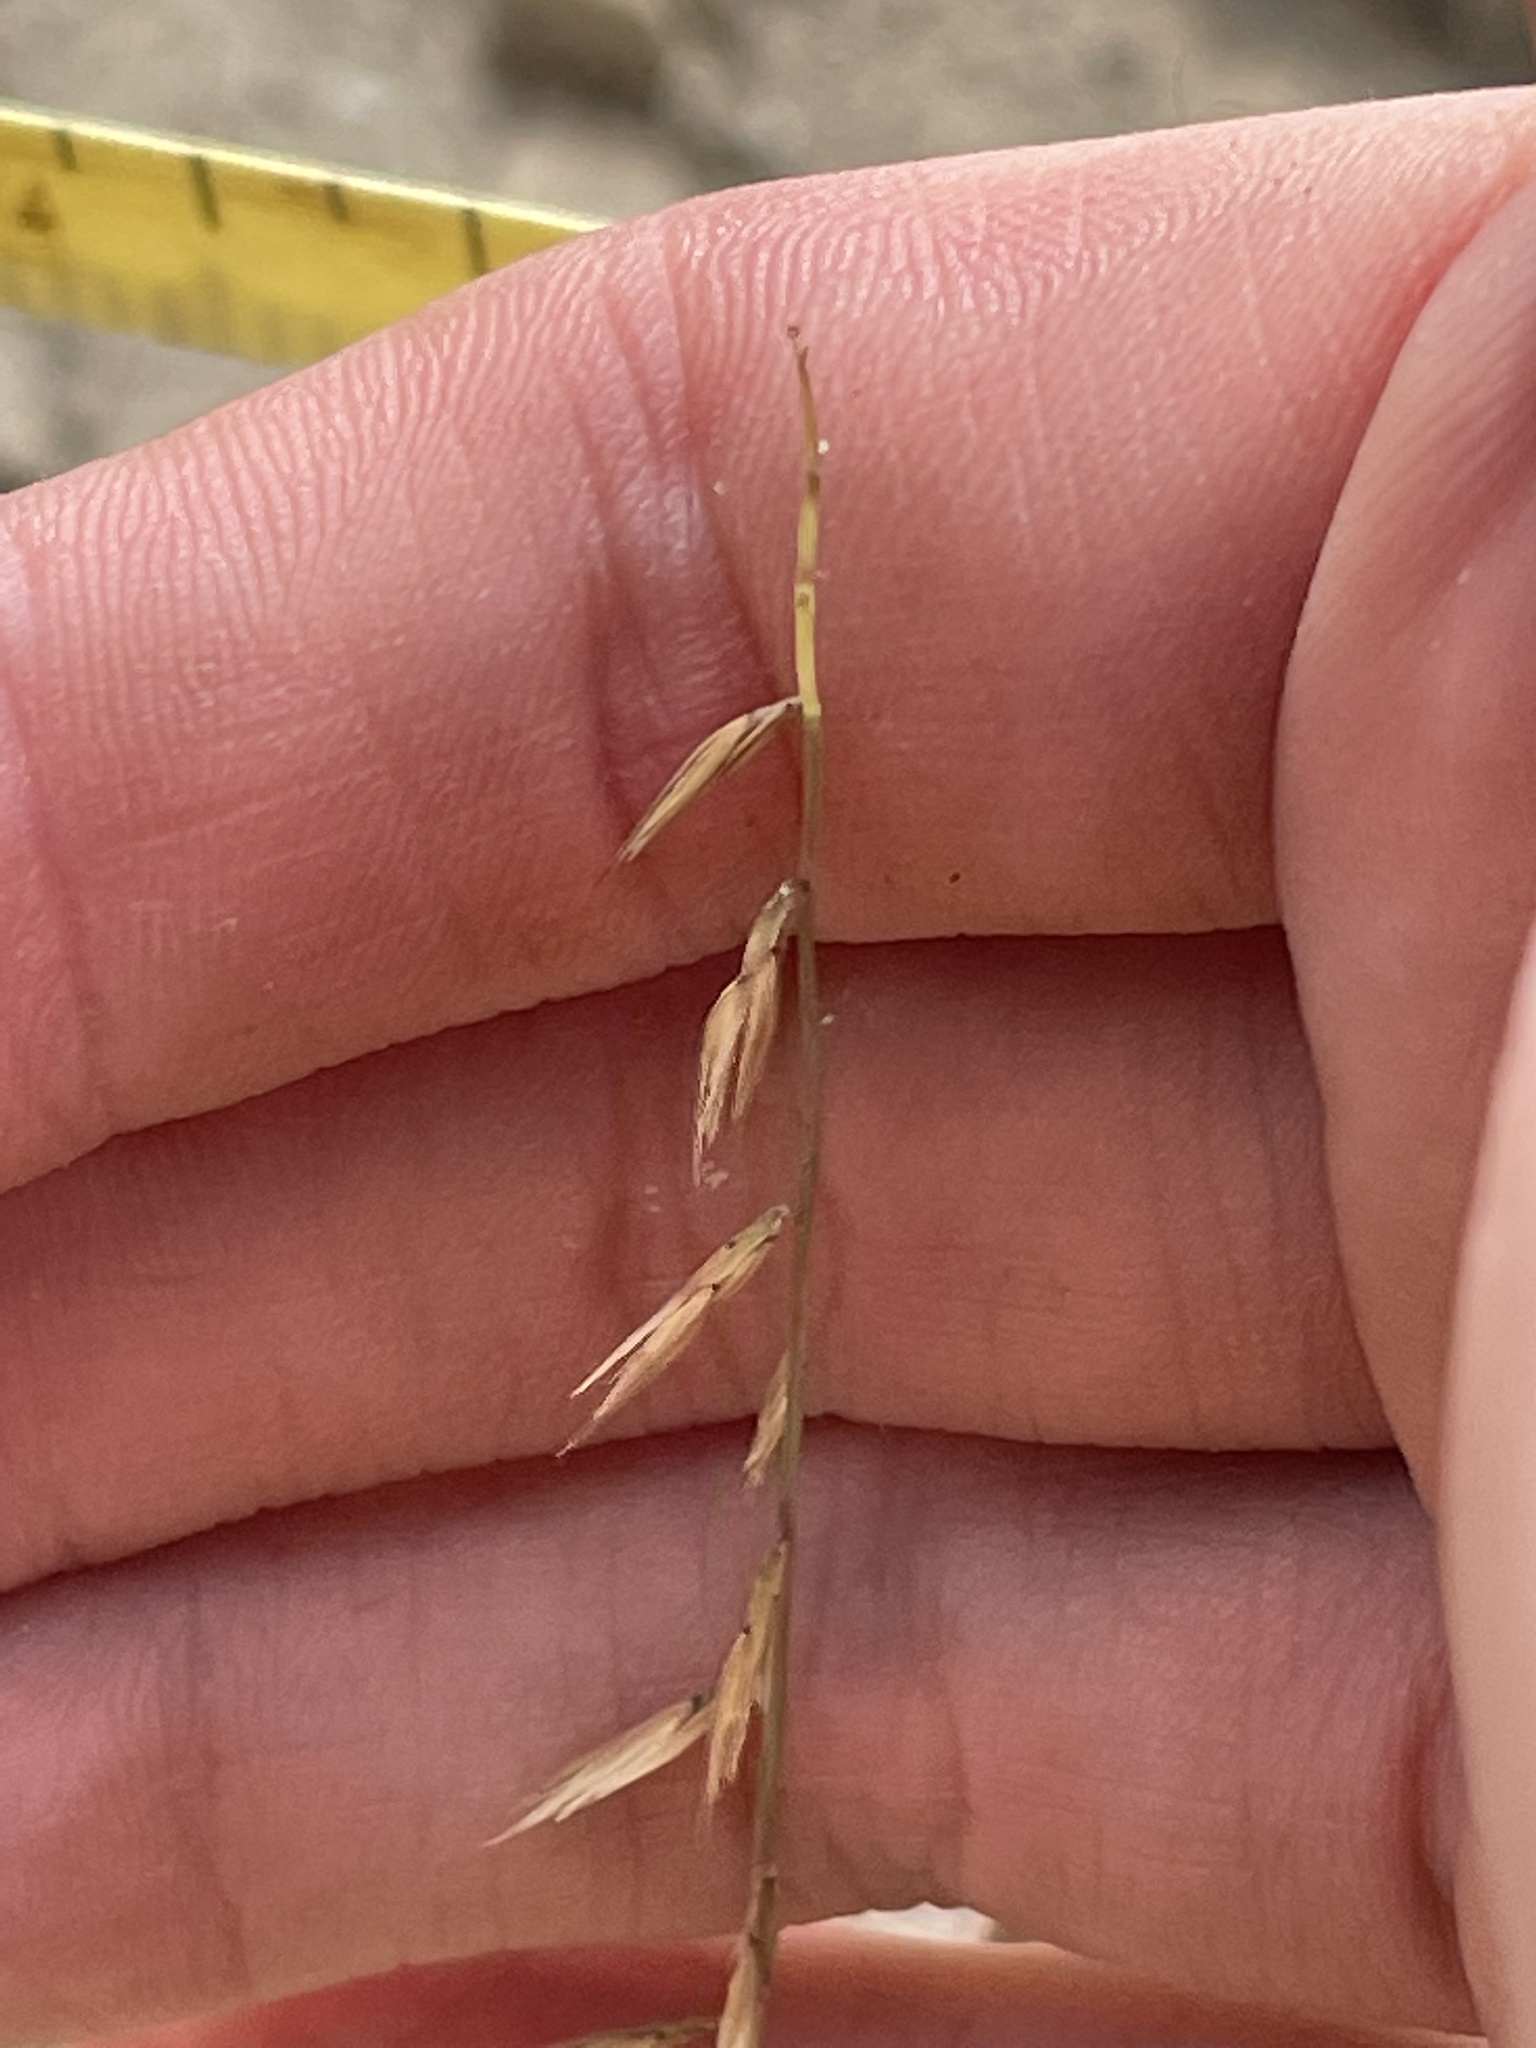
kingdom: Plantae
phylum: Tracheophyta
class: Liliopsida
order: Poales
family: Poaceae
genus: Bouteloua
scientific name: Bouteloua curtipendula
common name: Side-oats grama
